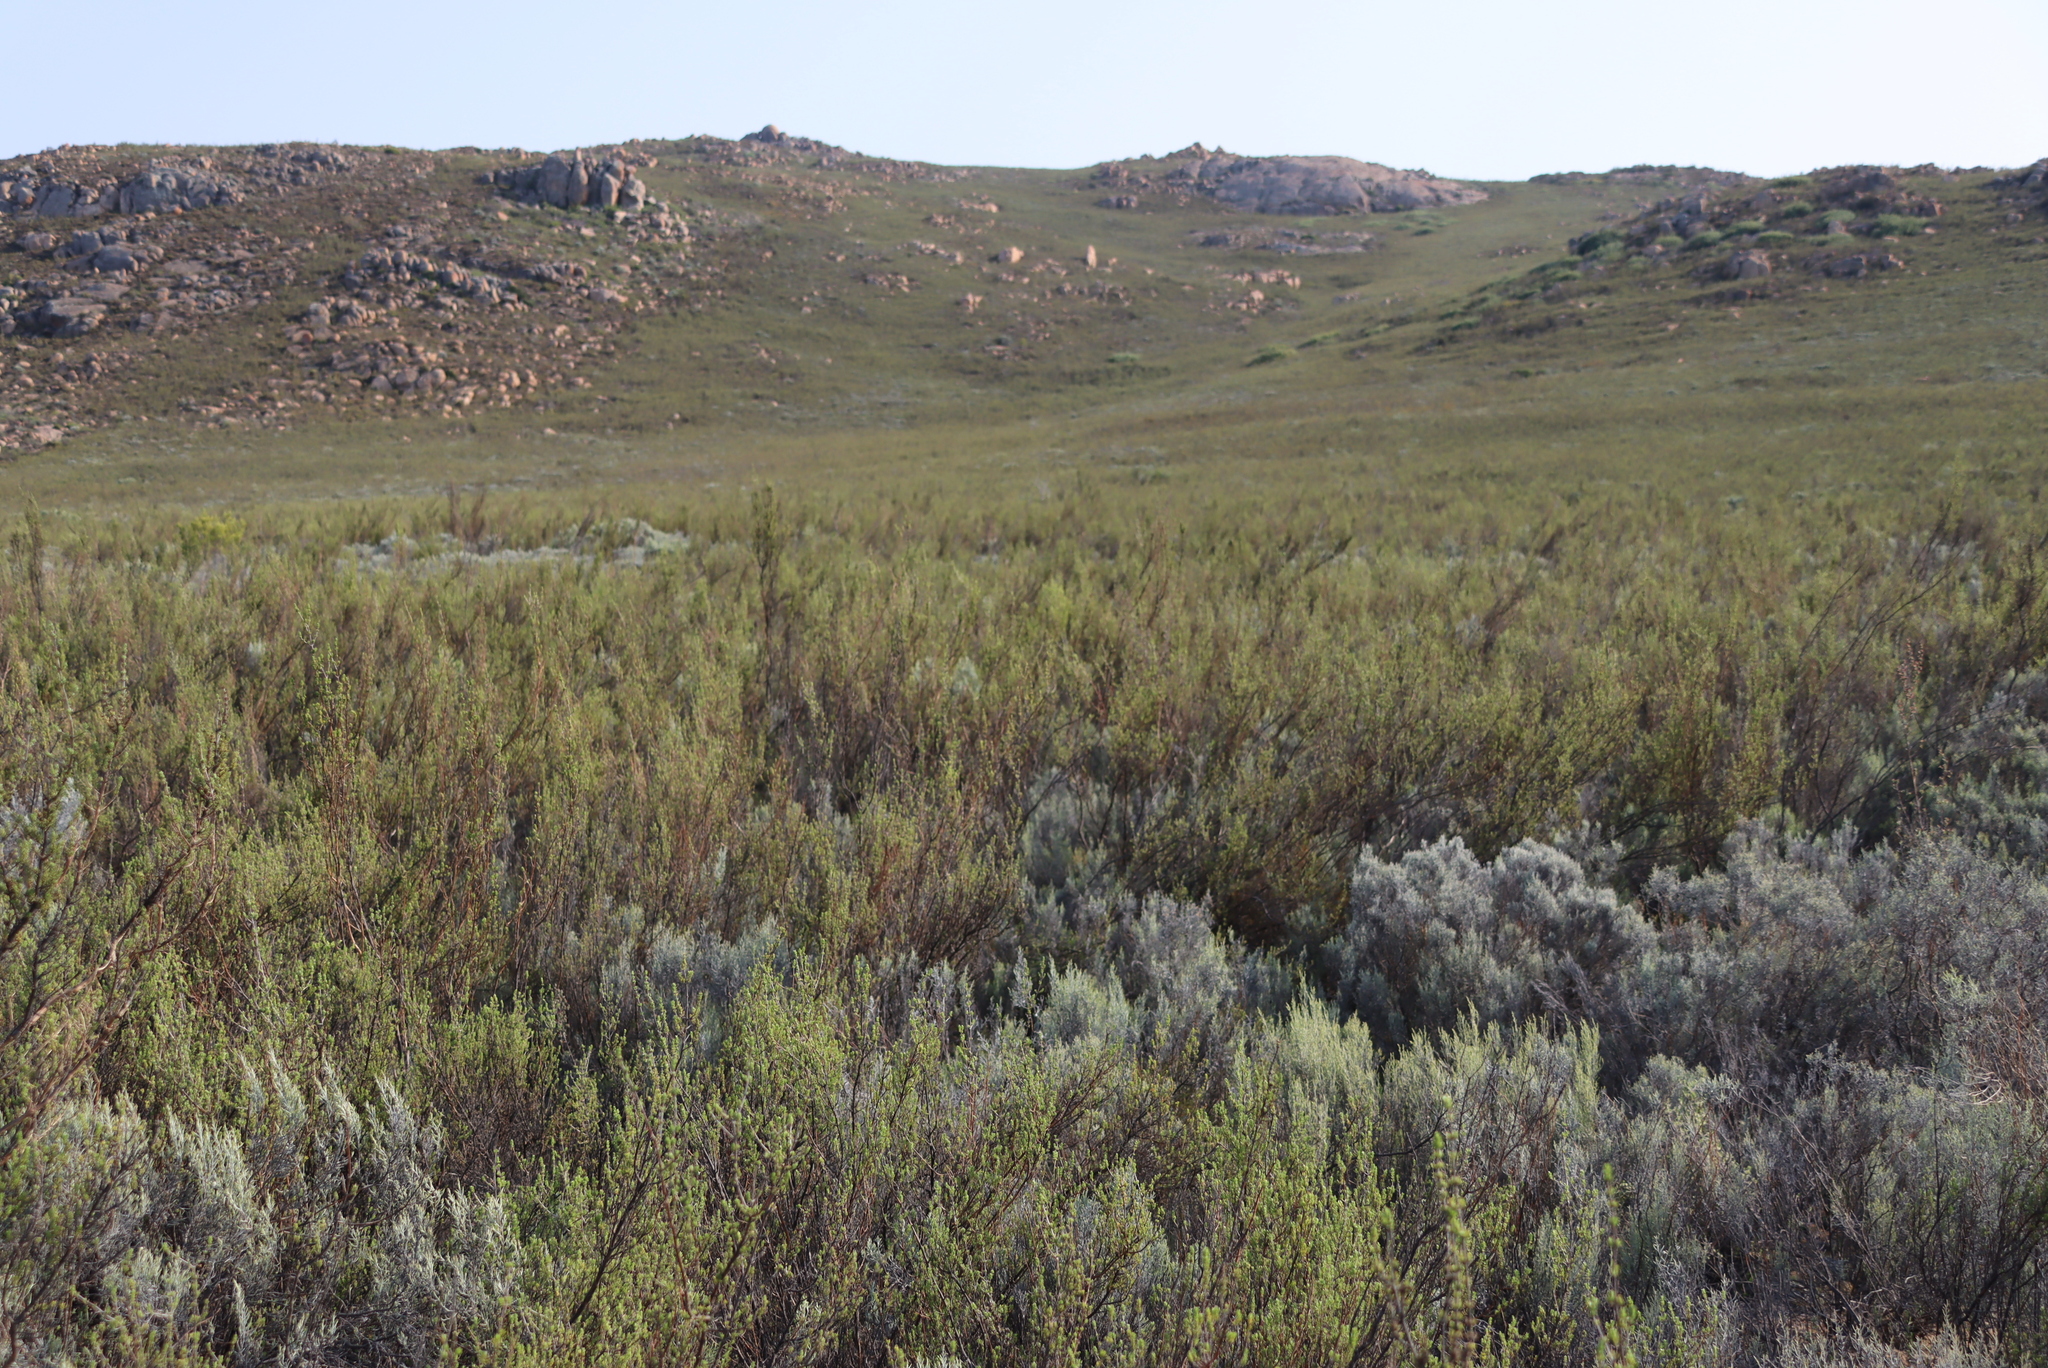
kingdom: Plantae
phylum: Tracheophyta
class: Magnoliopsida
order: Asterales
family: Asteraceae
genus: Dicerothamnus
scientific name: Dicerothamnus rhinocerotis
